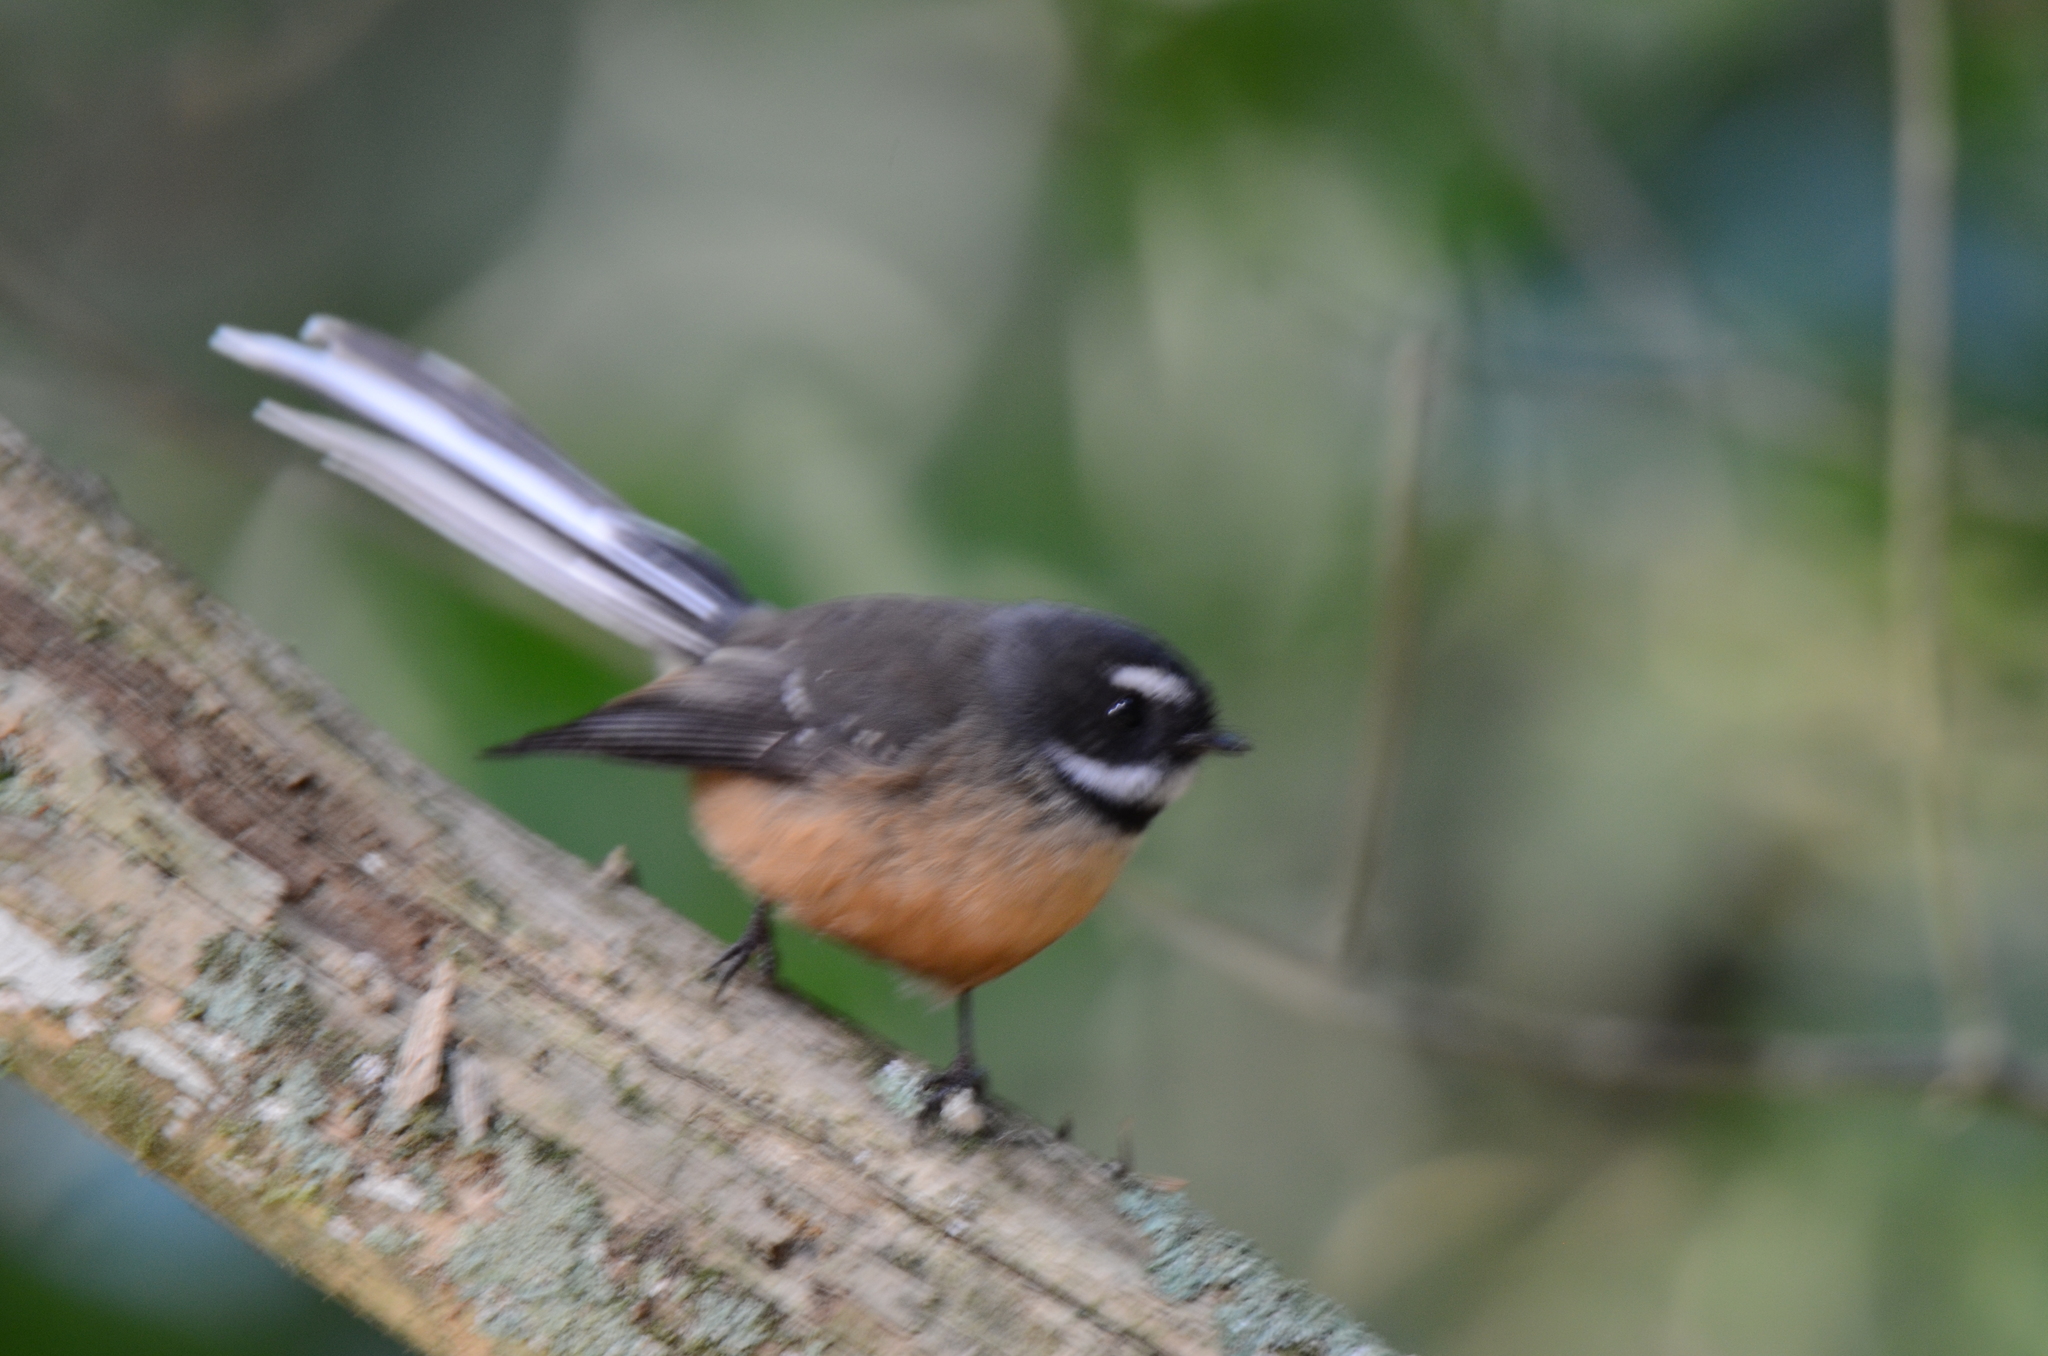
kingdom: Animalia
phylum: Chordata
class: Aves
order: Passeriformes
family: Rhipiduridae
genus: Rhipidura
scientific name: Rhipidura fuliginosa
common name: New zealand fantail
